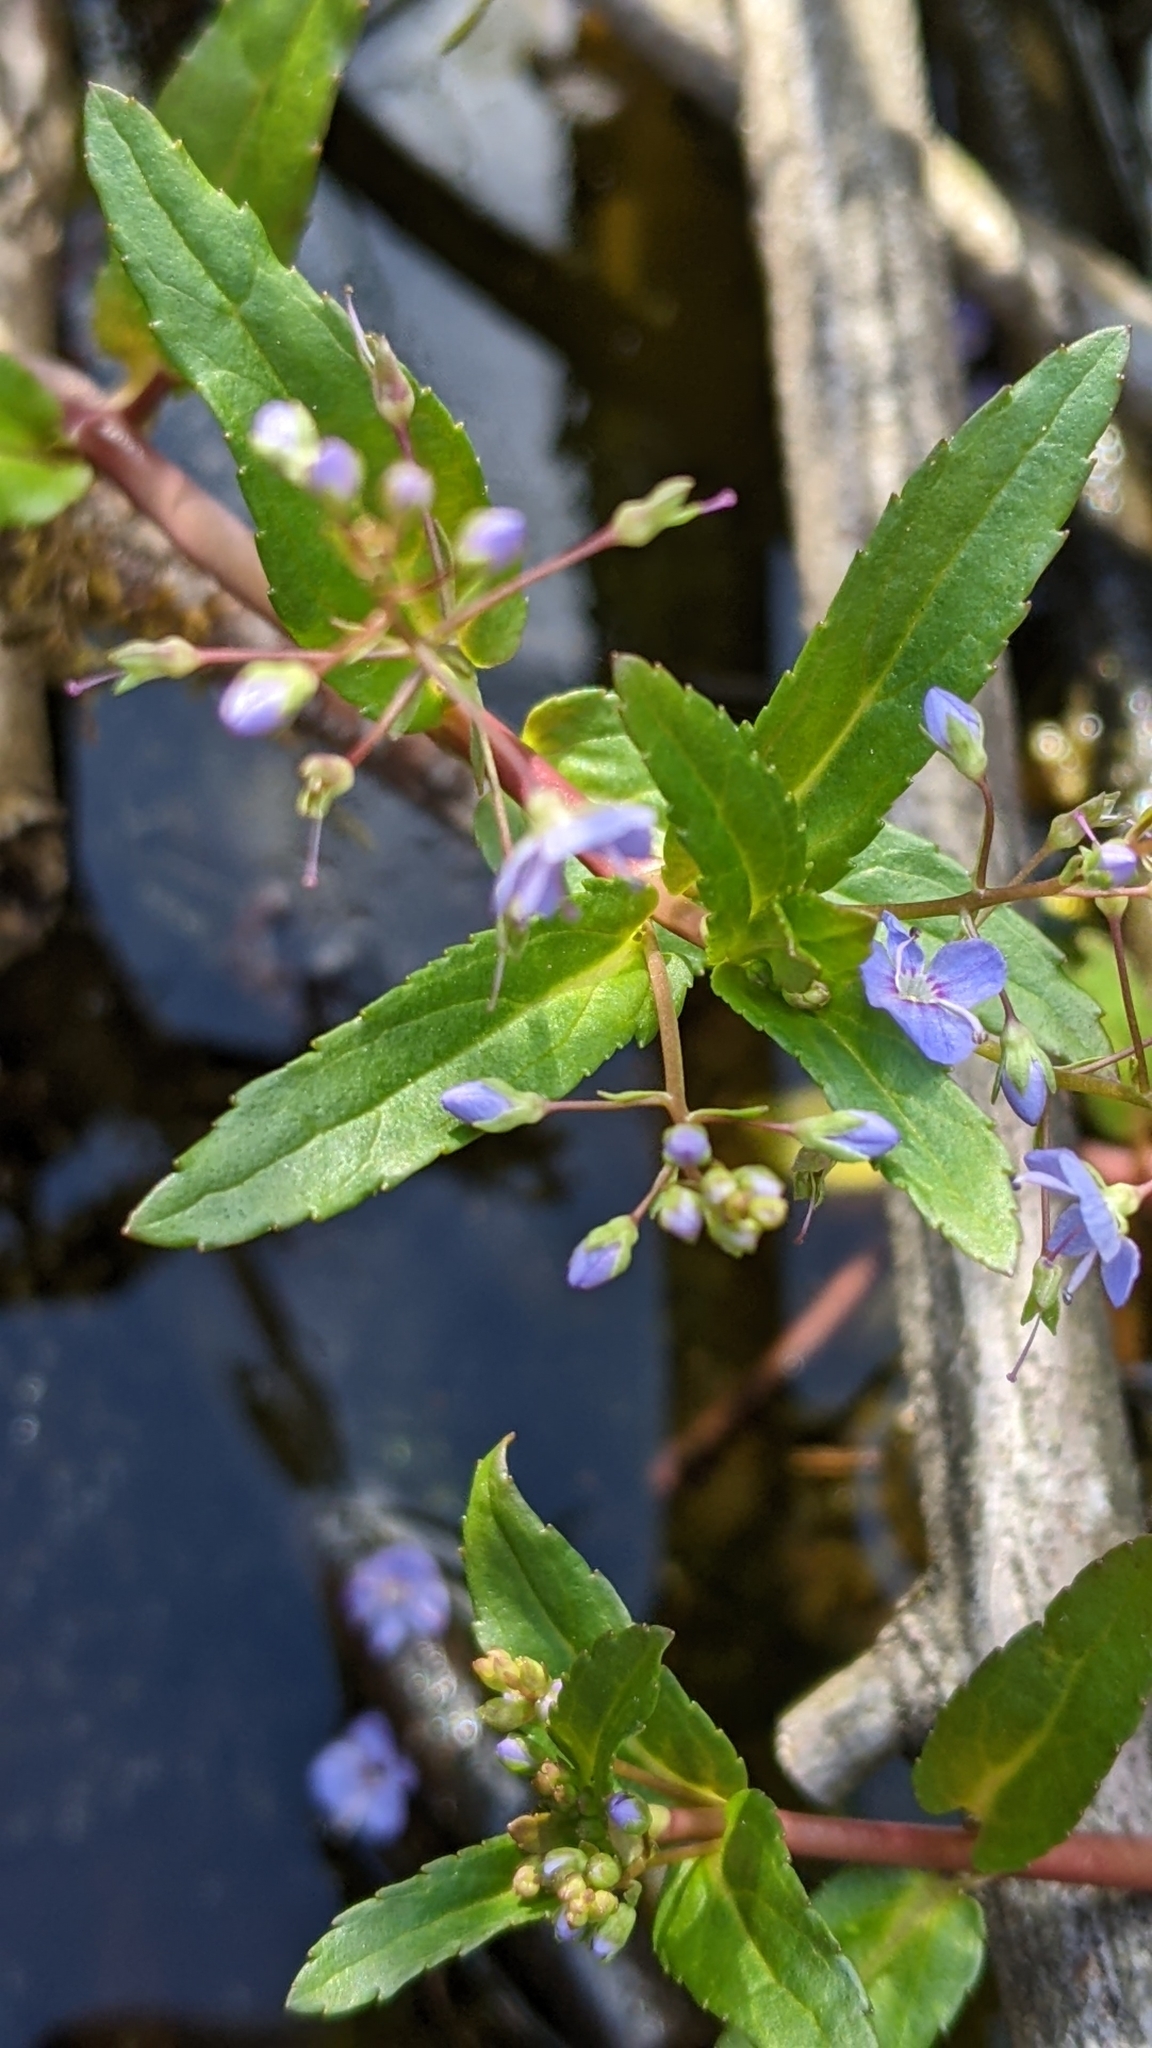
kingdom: Plantae
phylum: Tracheophyta
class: Magnoliopsida
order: Lamiales
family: Plantaginaceae
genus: Veronica
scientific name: Veronica americana
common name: American brooklime
